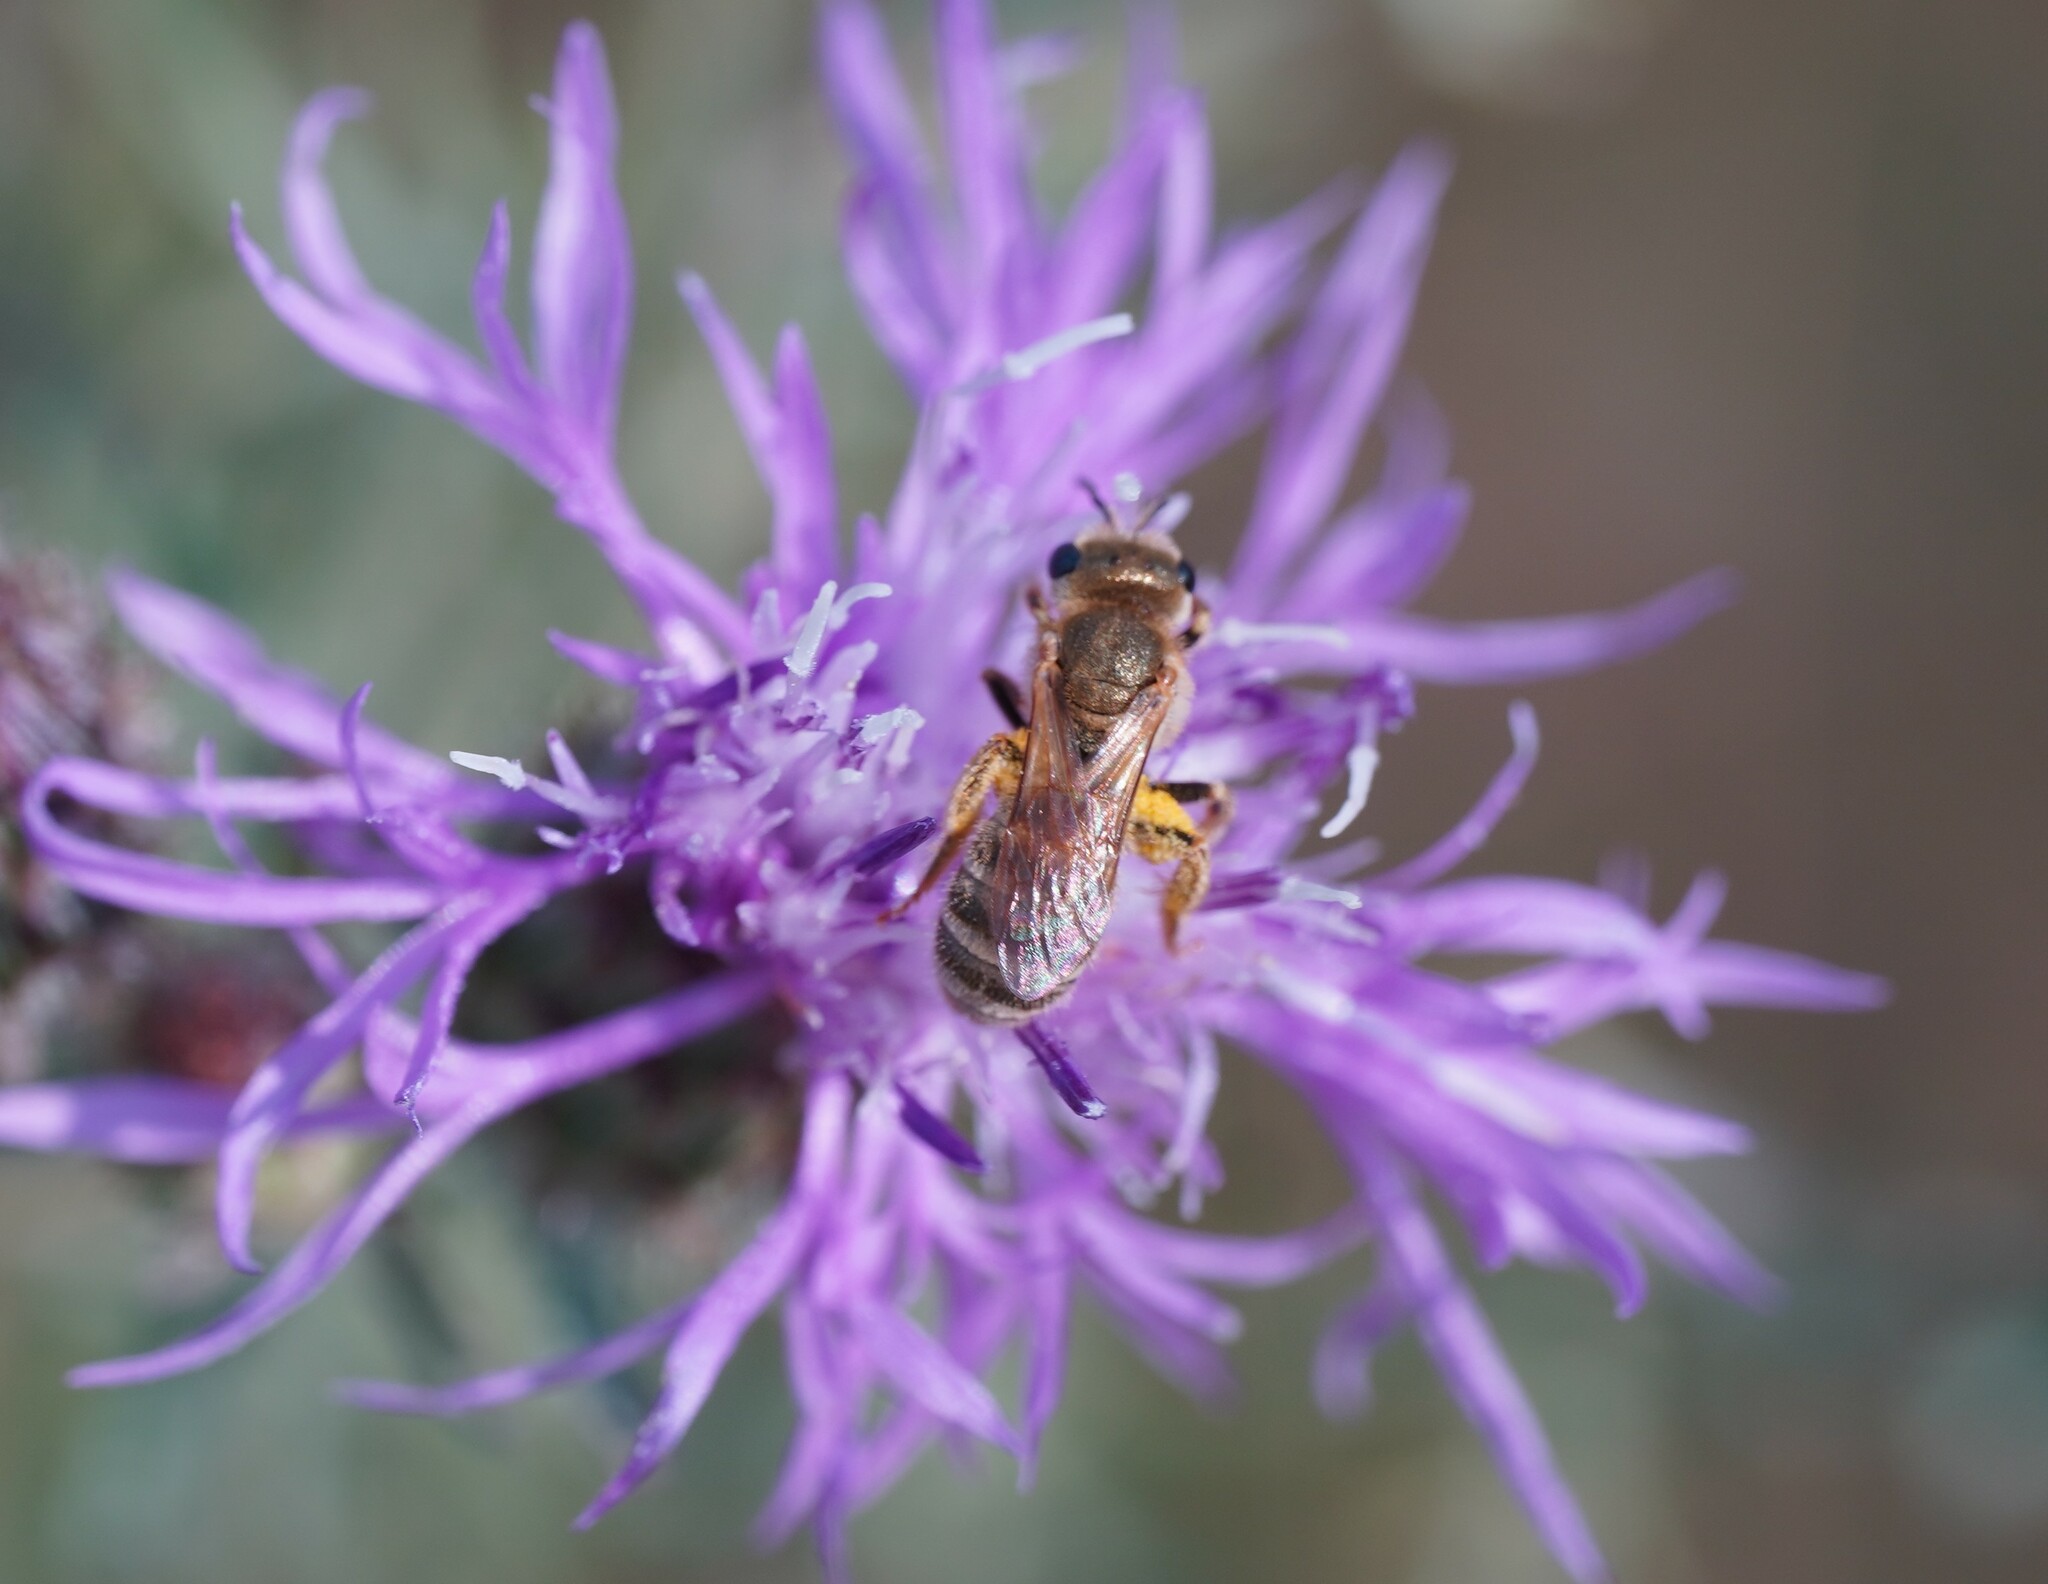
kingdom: Animalia
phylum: Arthropoda
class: Insecta
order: Hymenoptera
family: Halictidae
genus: Halictus
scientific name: Halictus subauratus
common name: Golden furrow bee
